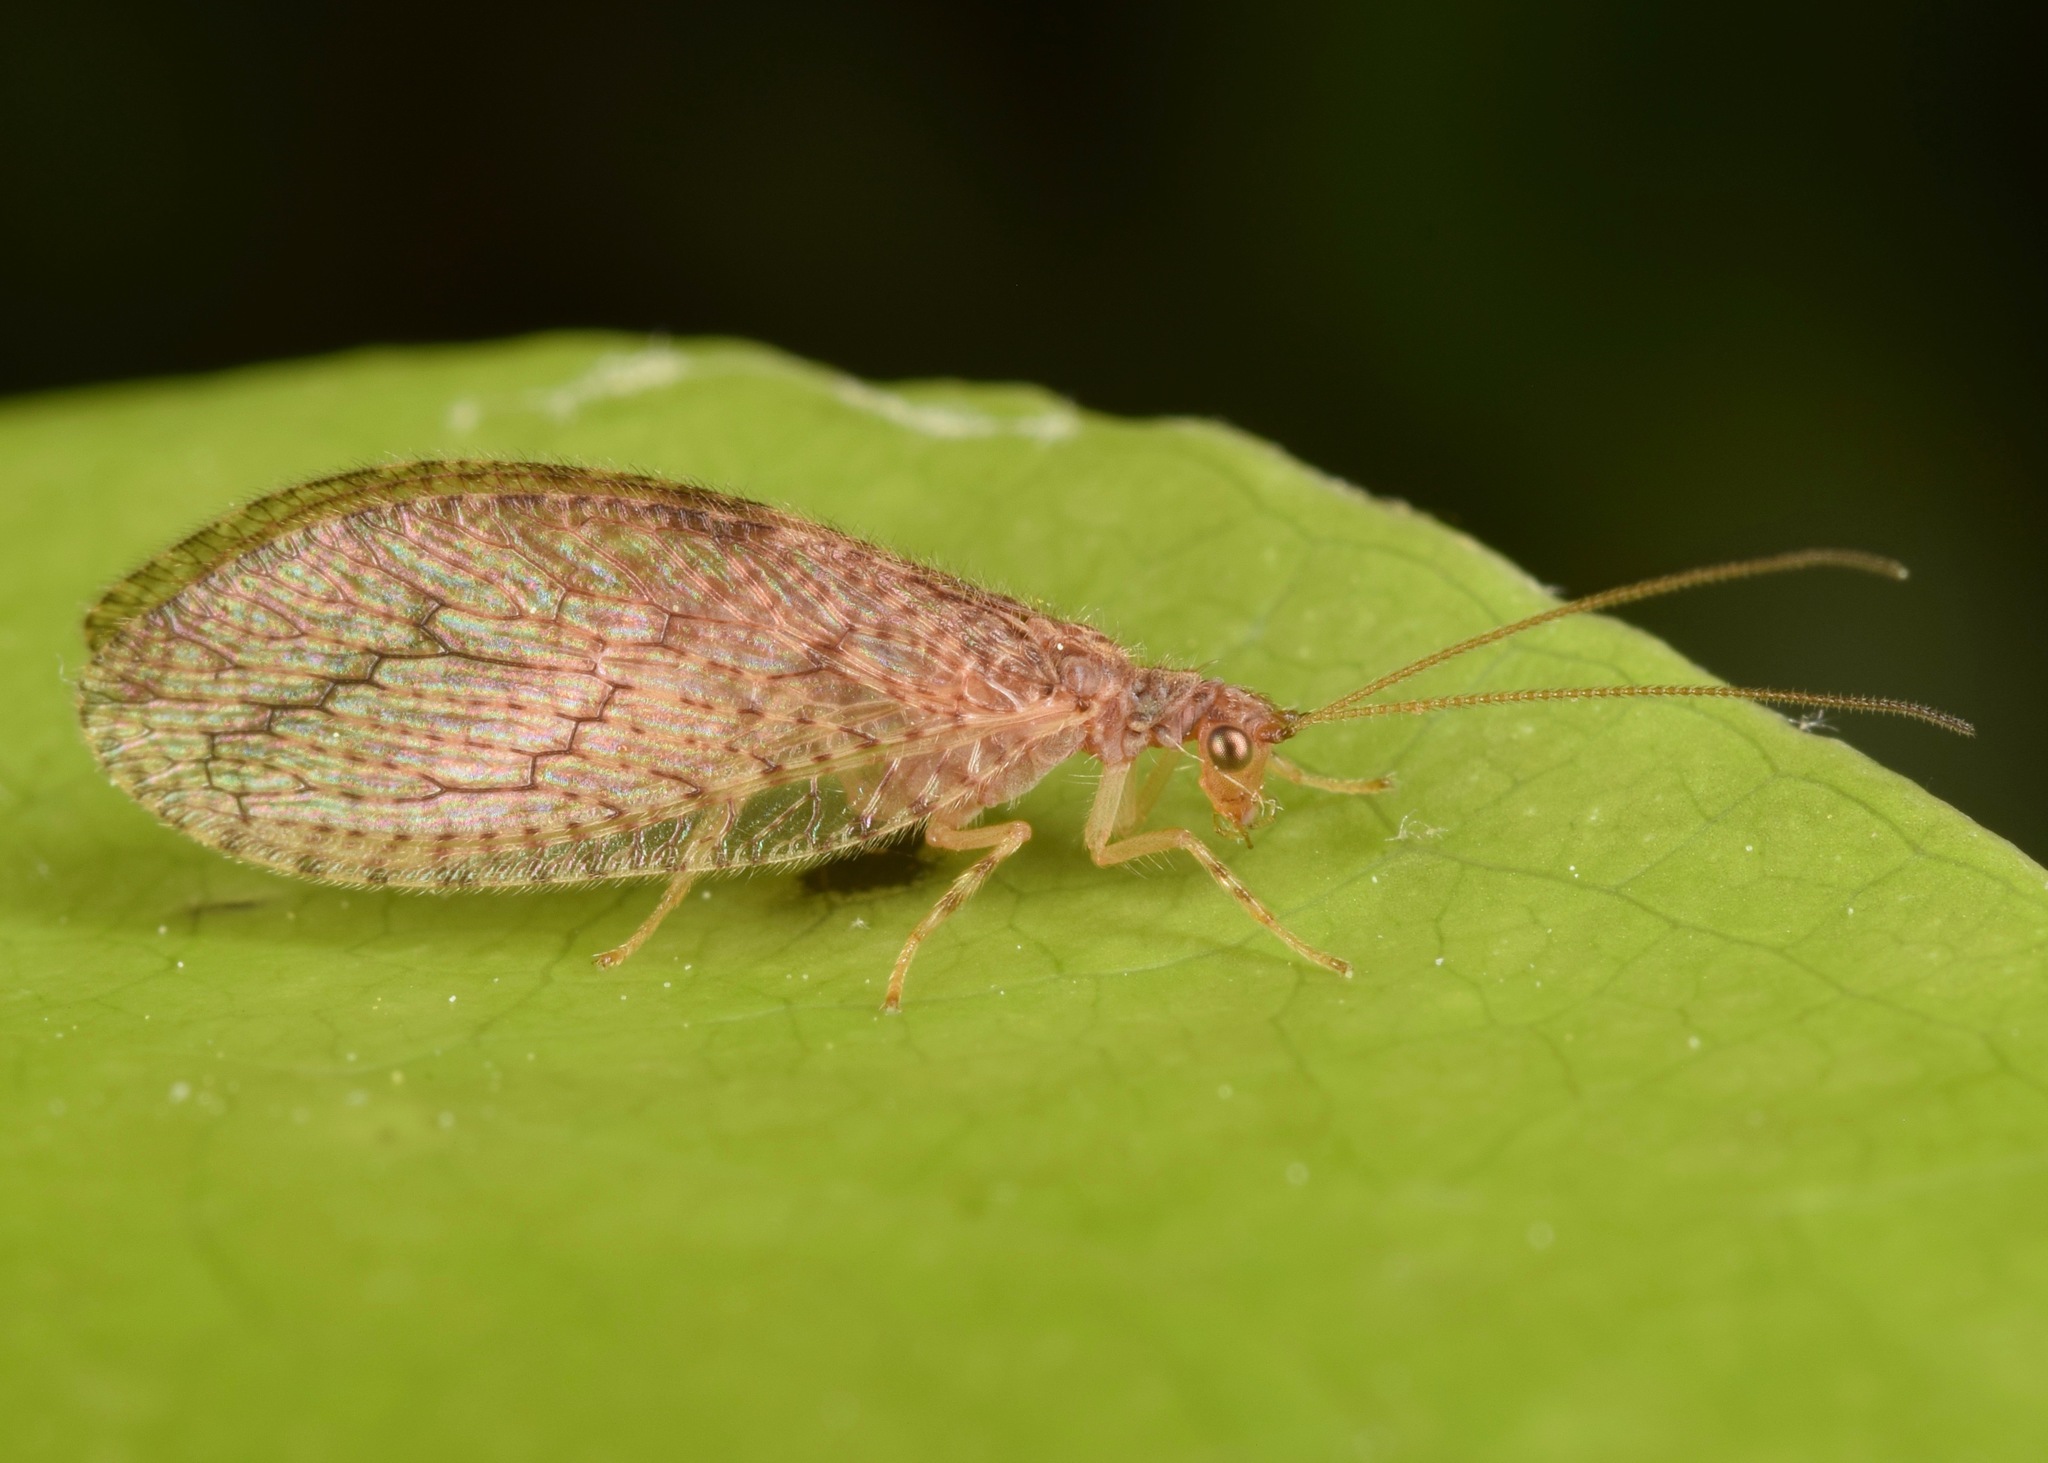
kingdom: Animalia
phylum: Arthropoda
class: Insecta
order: Neuroptera
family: Hemerobiidae
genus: Micromus
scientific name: Micromus posticus
